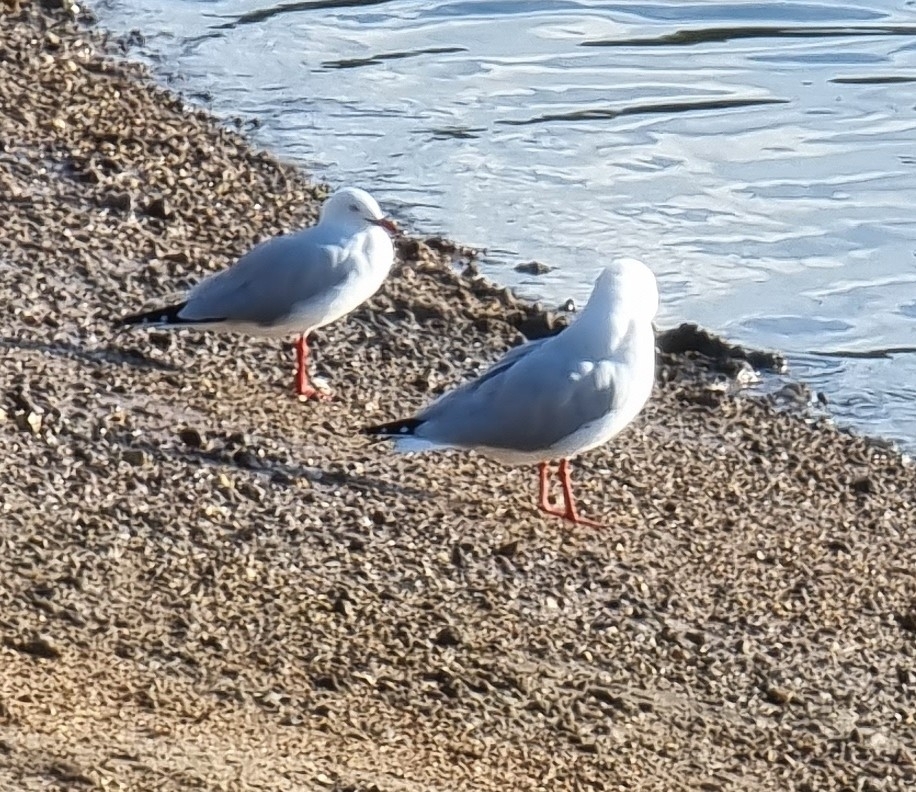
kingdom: Animalia
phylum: Chordata
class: Aves
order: Charadriiformes
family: Laridae
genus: Chroicocephalus
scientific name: Chroicocephalus novaehollandiae
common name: Silver gull
